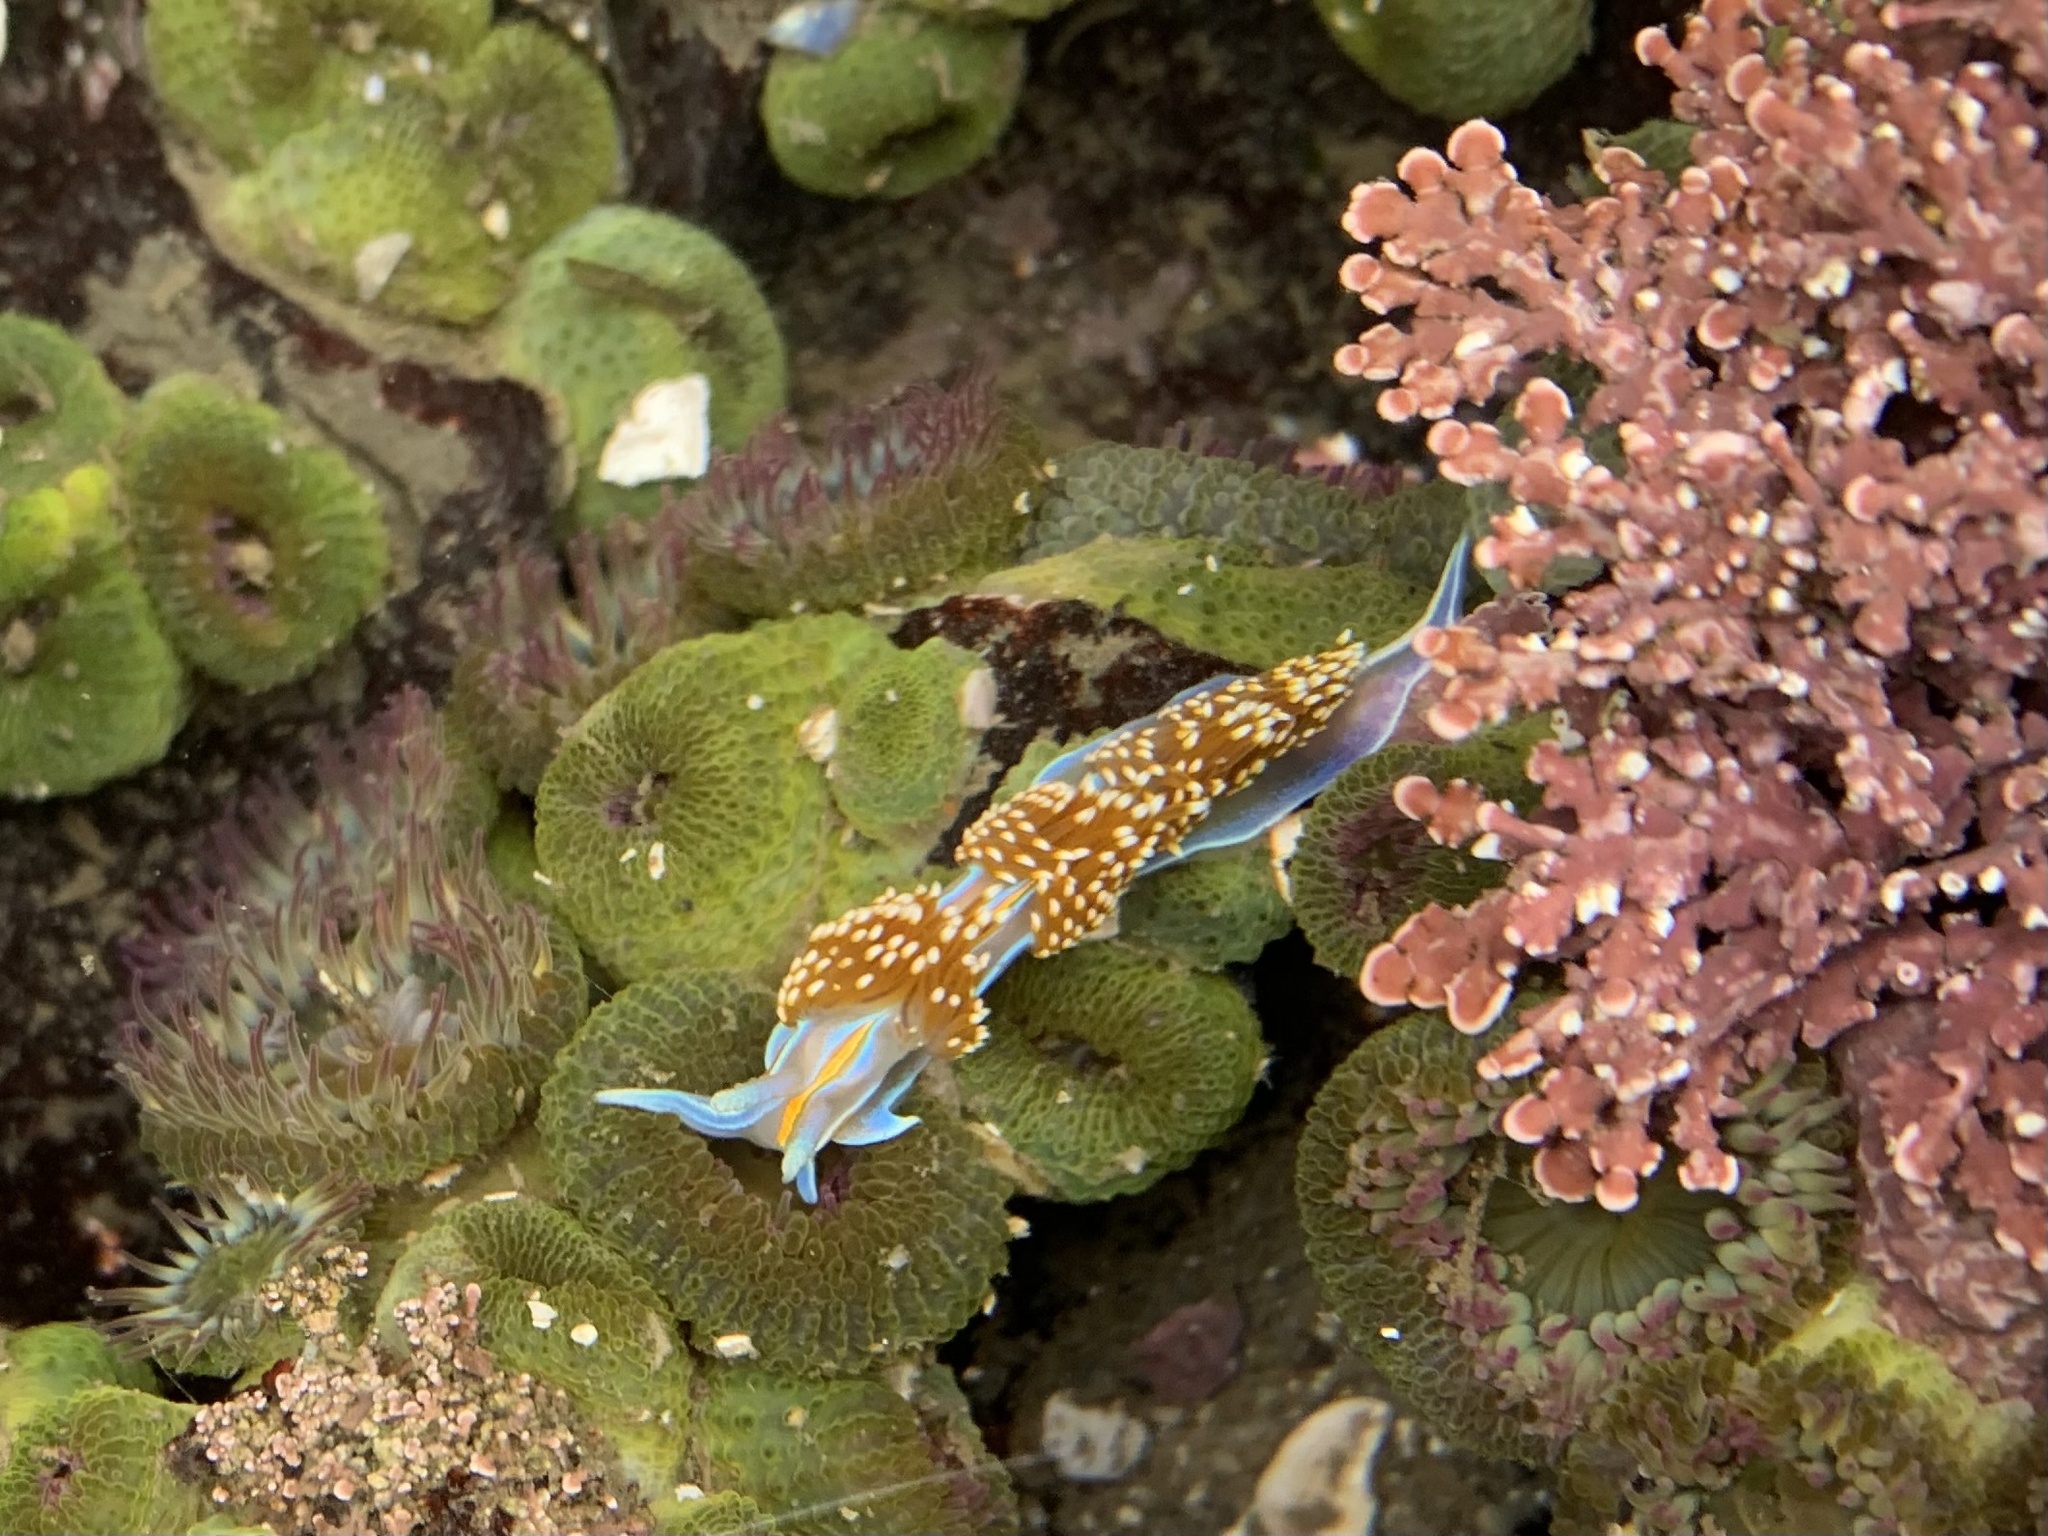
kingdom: Animalia
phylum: Mollusca
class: Gastropoda
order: Nudibranchia
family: Myrrhinidae
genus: Hermissenda
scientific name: Hermissenda opalescens
